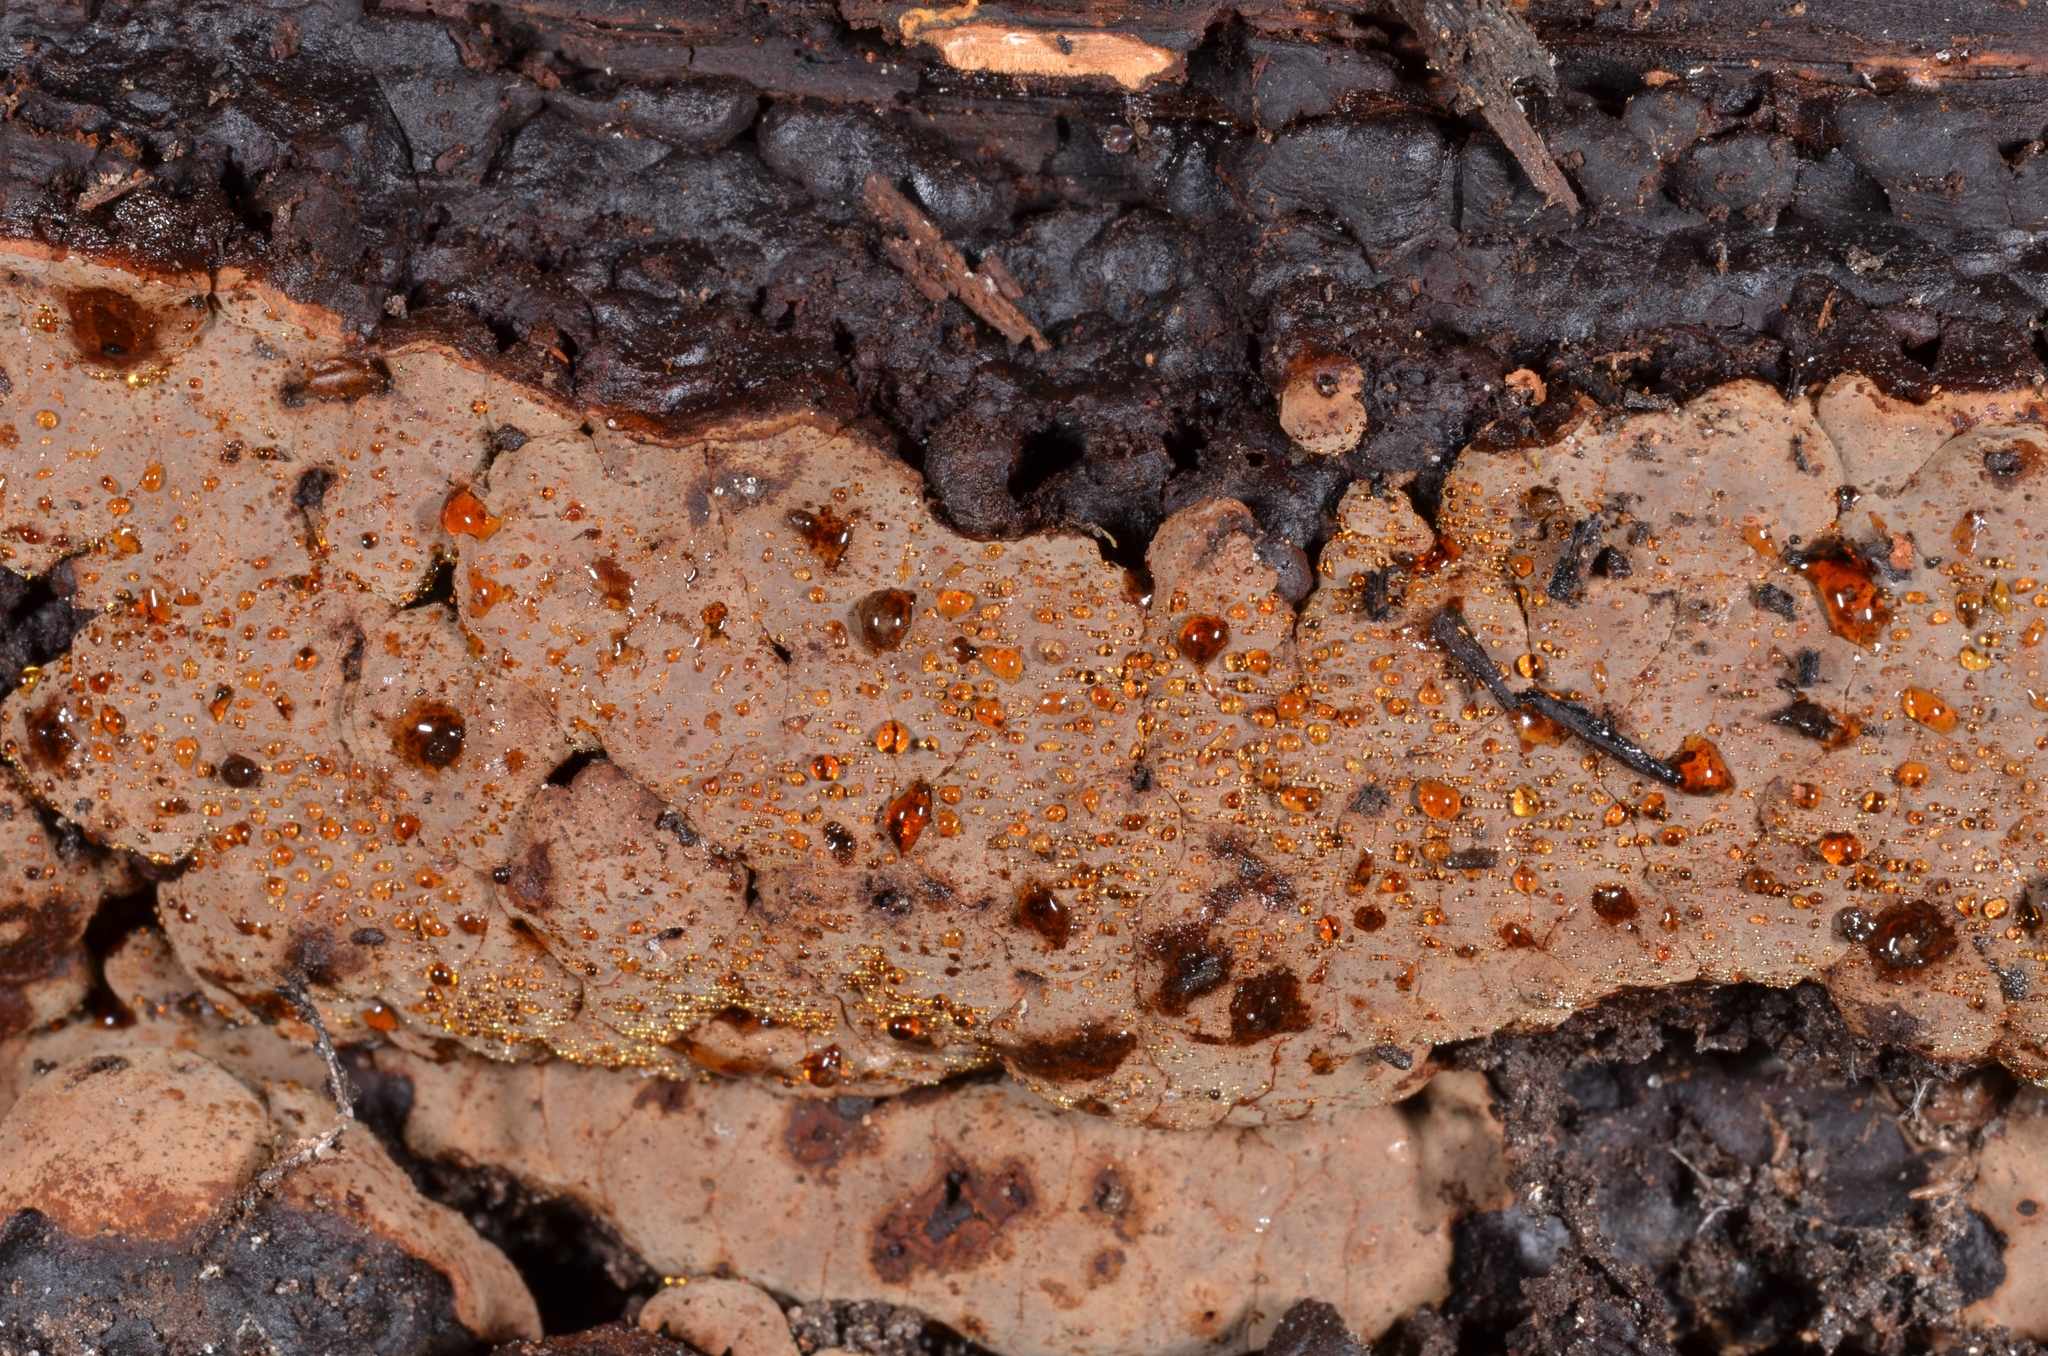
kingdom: Fungi
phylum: Basidiomycota
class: Agaricomycetes
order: Russulales
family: Stereaceae
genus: Xylobolus
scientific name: Xylobolus frustulatus
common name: Ceramic parchment
